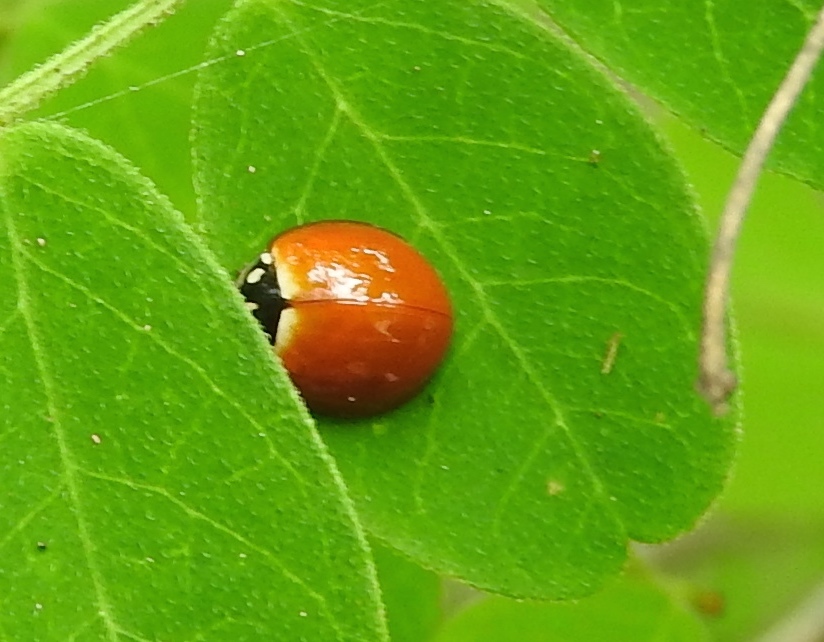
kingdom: Animalia
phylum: Arthropoda
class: Insecta
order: Coleoptera
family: Coccinellidae
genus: Cycloneda
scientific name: Cycloneda sanguinea
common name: Ladybird beetle
